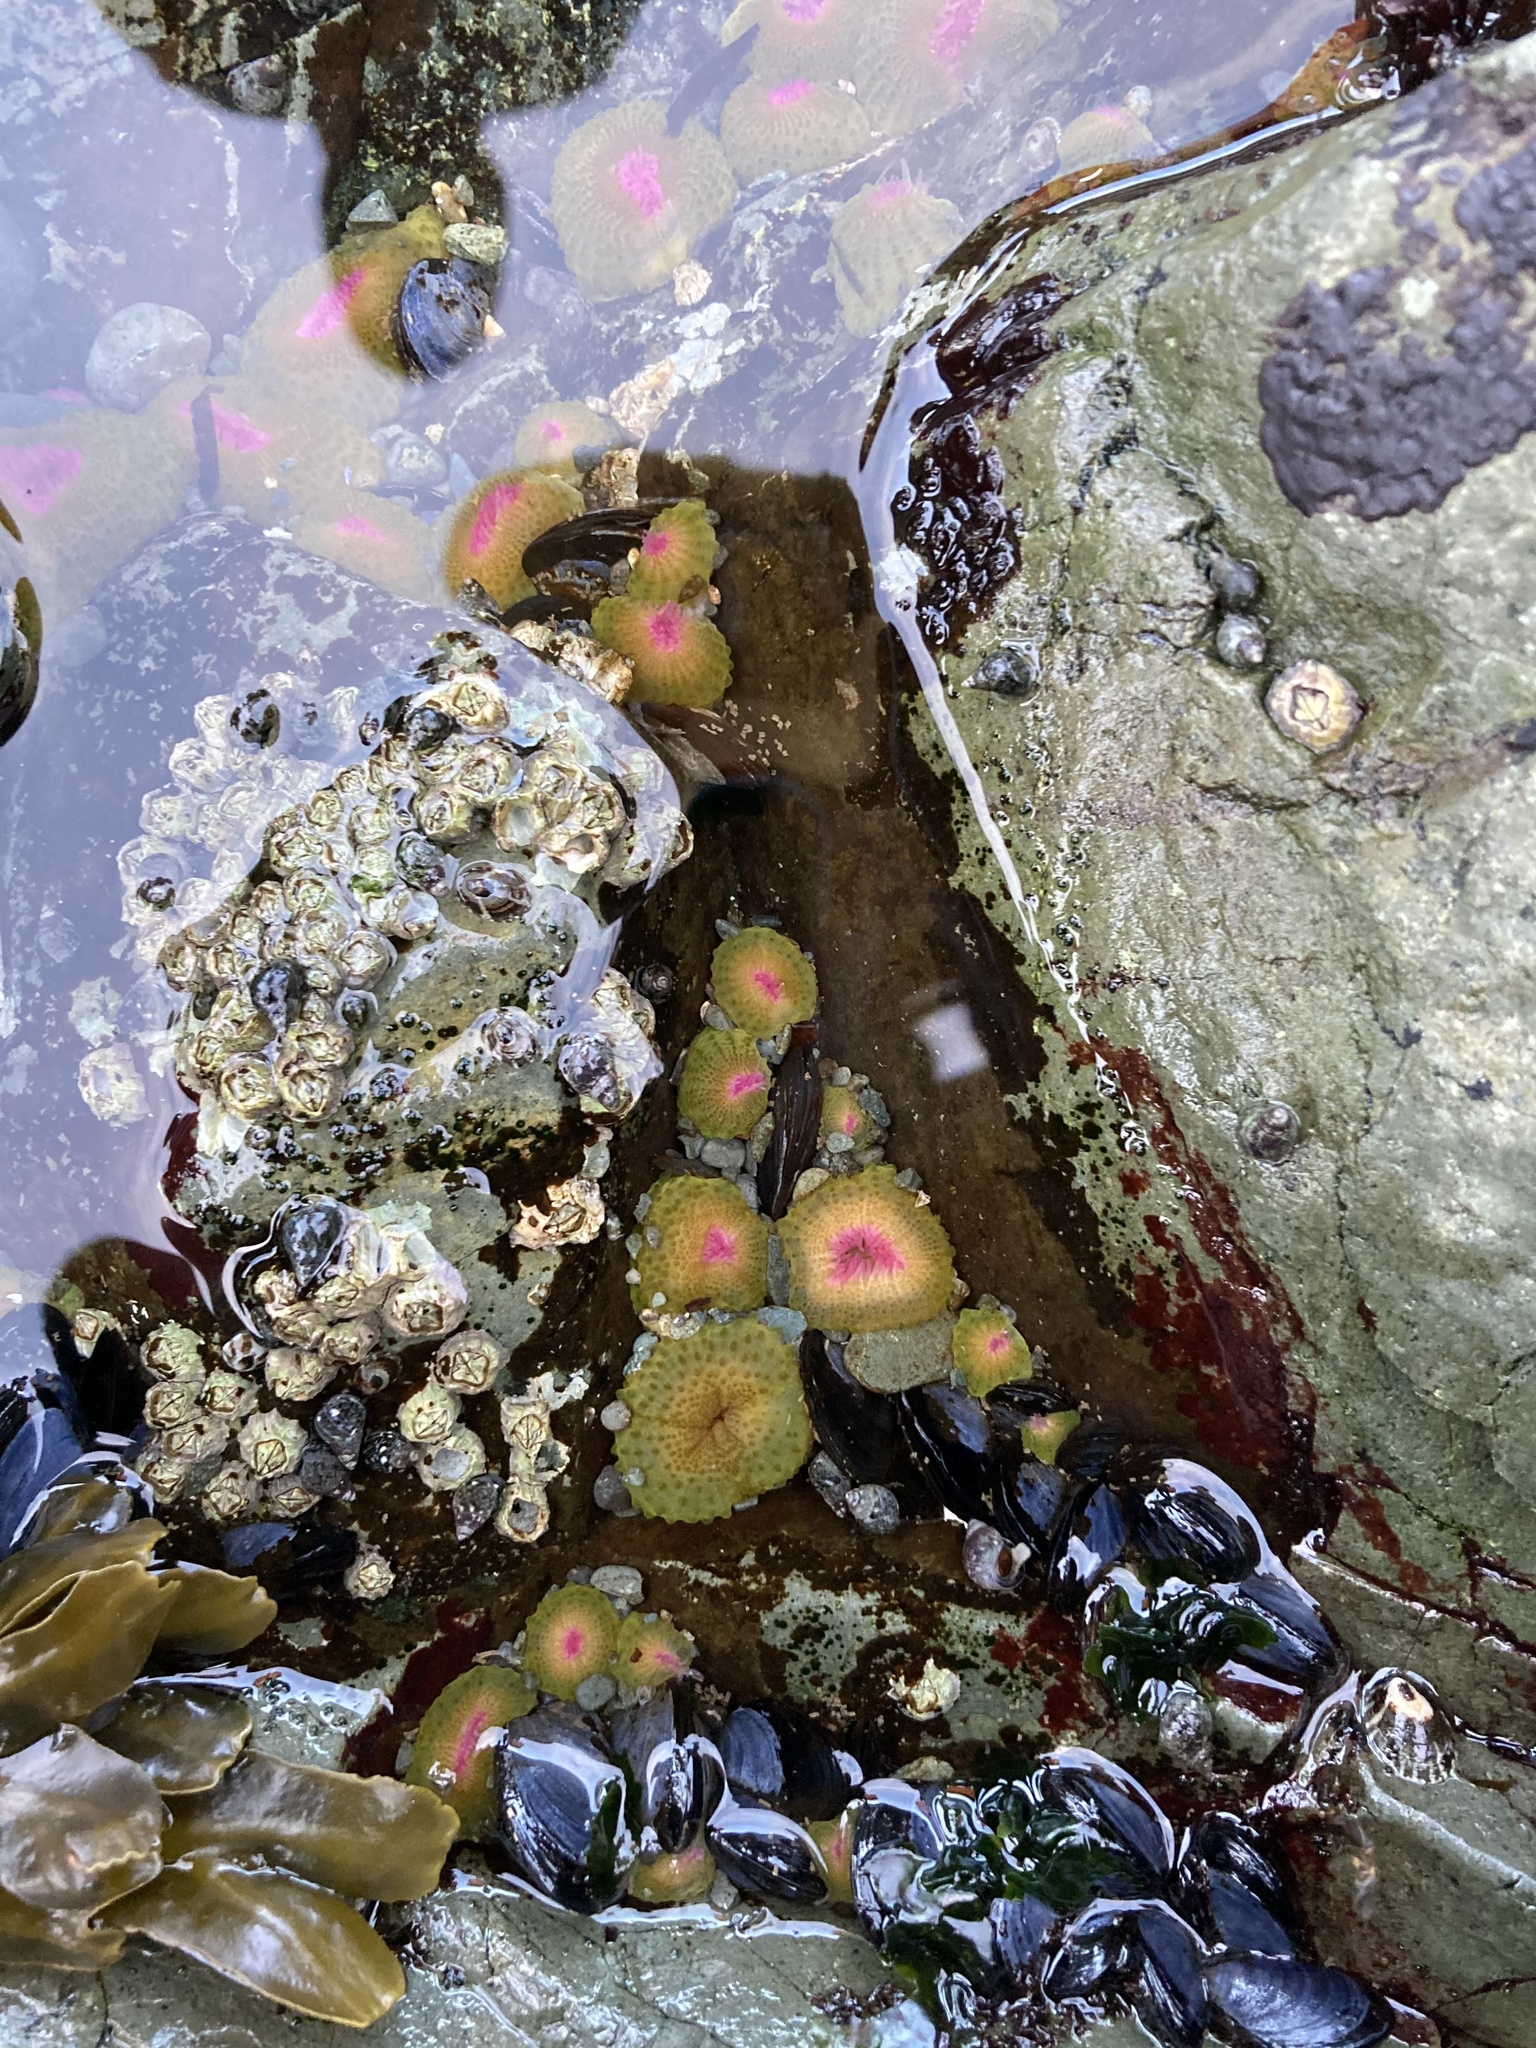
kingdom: Animalia
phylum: Cnidaria
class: Anthozoa
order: Actiniaria
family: Actiniidae
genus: Anthopleura
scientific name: Anthopleura elegantissima
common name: Clonal anemone
